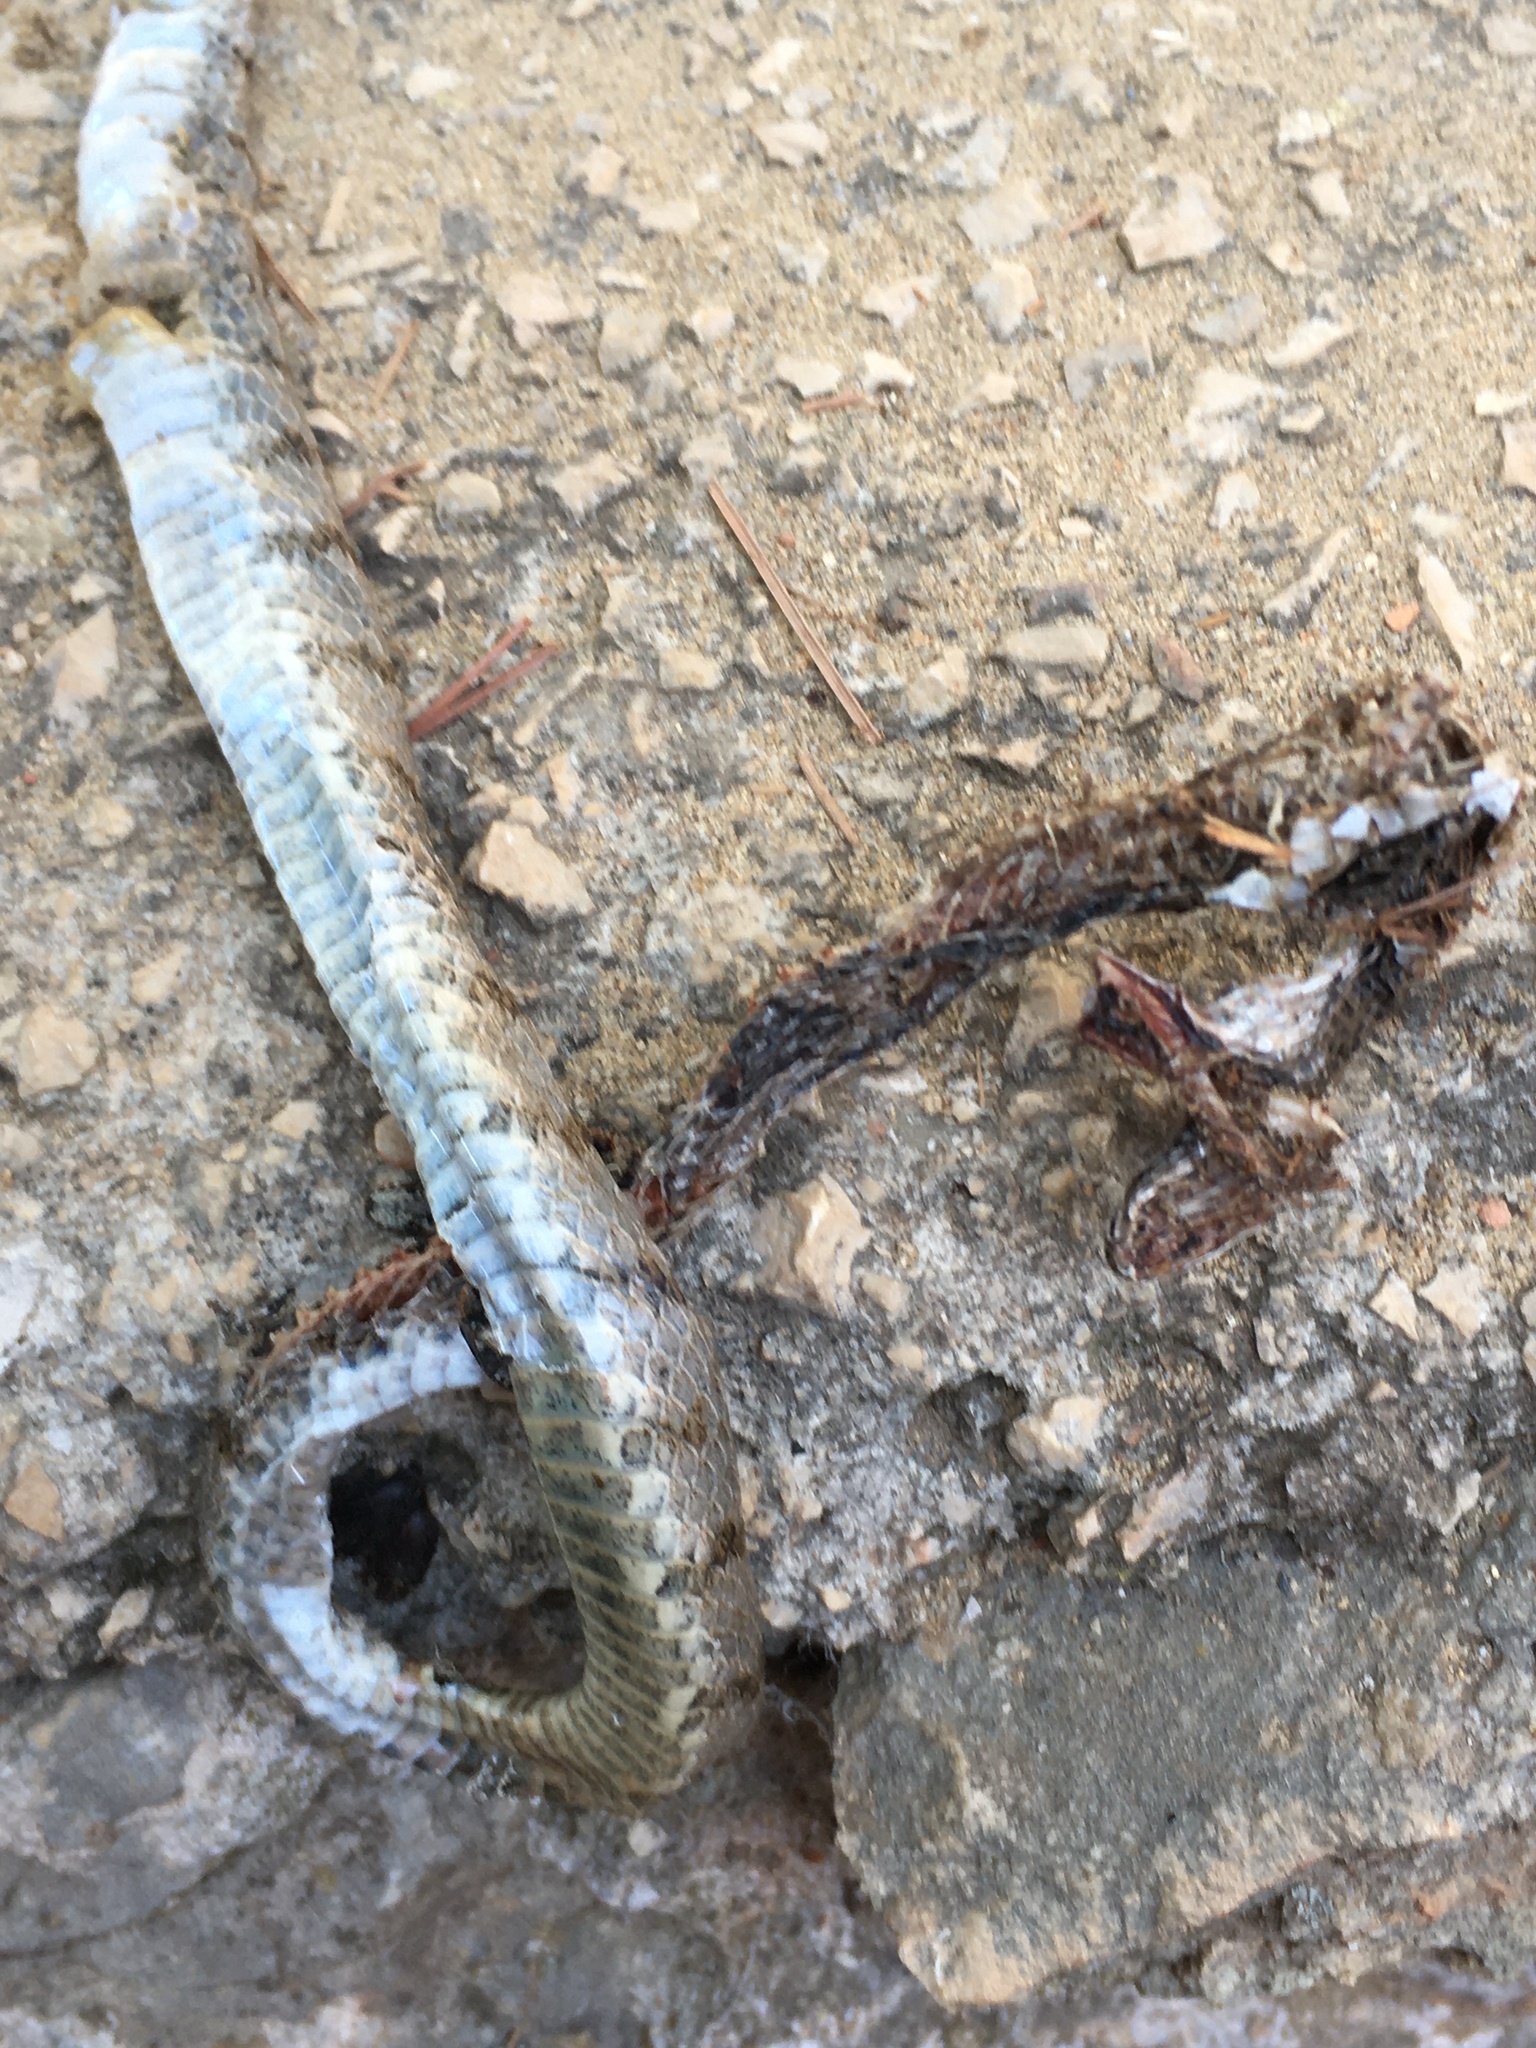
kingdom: Animalia
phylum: Chordata
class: Squamata
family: Colubridae
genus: Telescopus
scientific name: Telescopus fallax
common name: Cat snake
